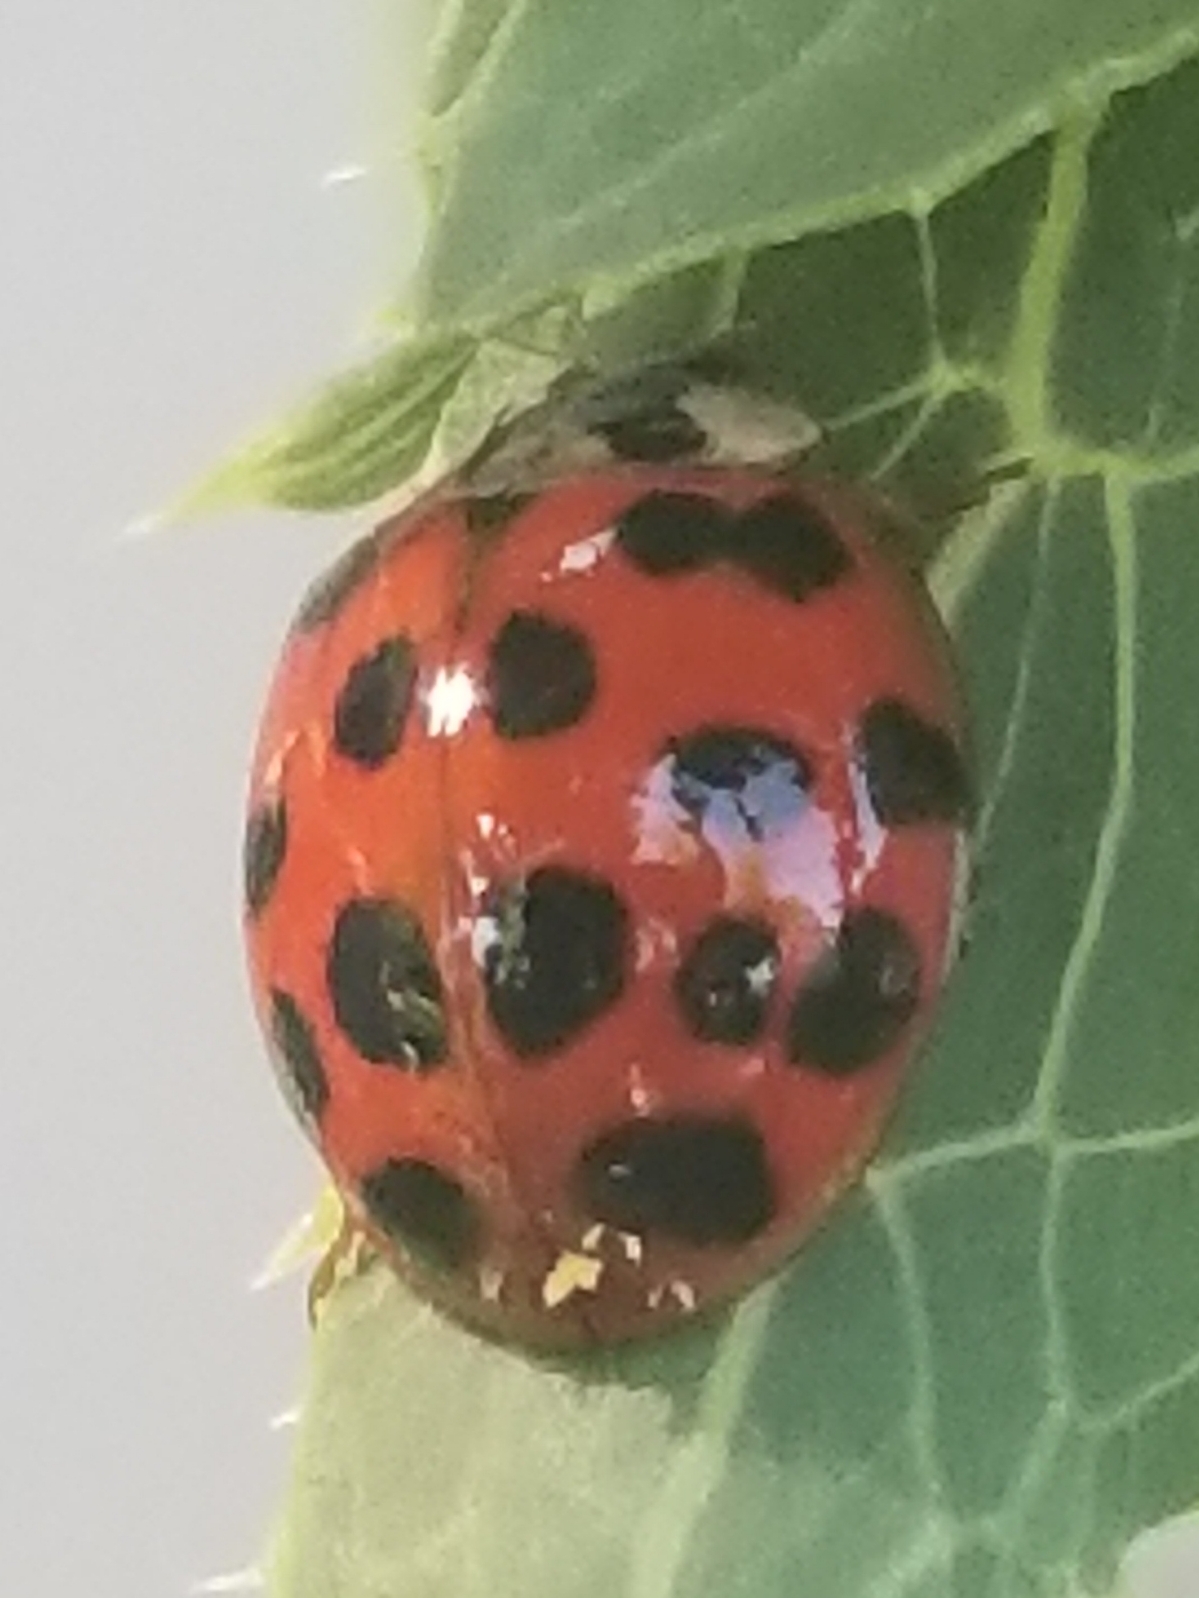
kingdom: Fungi
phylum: Ascomycota
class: Laboulbeniomycetes
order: Laboulbeniales
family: Laboulbeniaceae
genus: Hesperomyces
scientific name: Hesperomyces harmoniae
